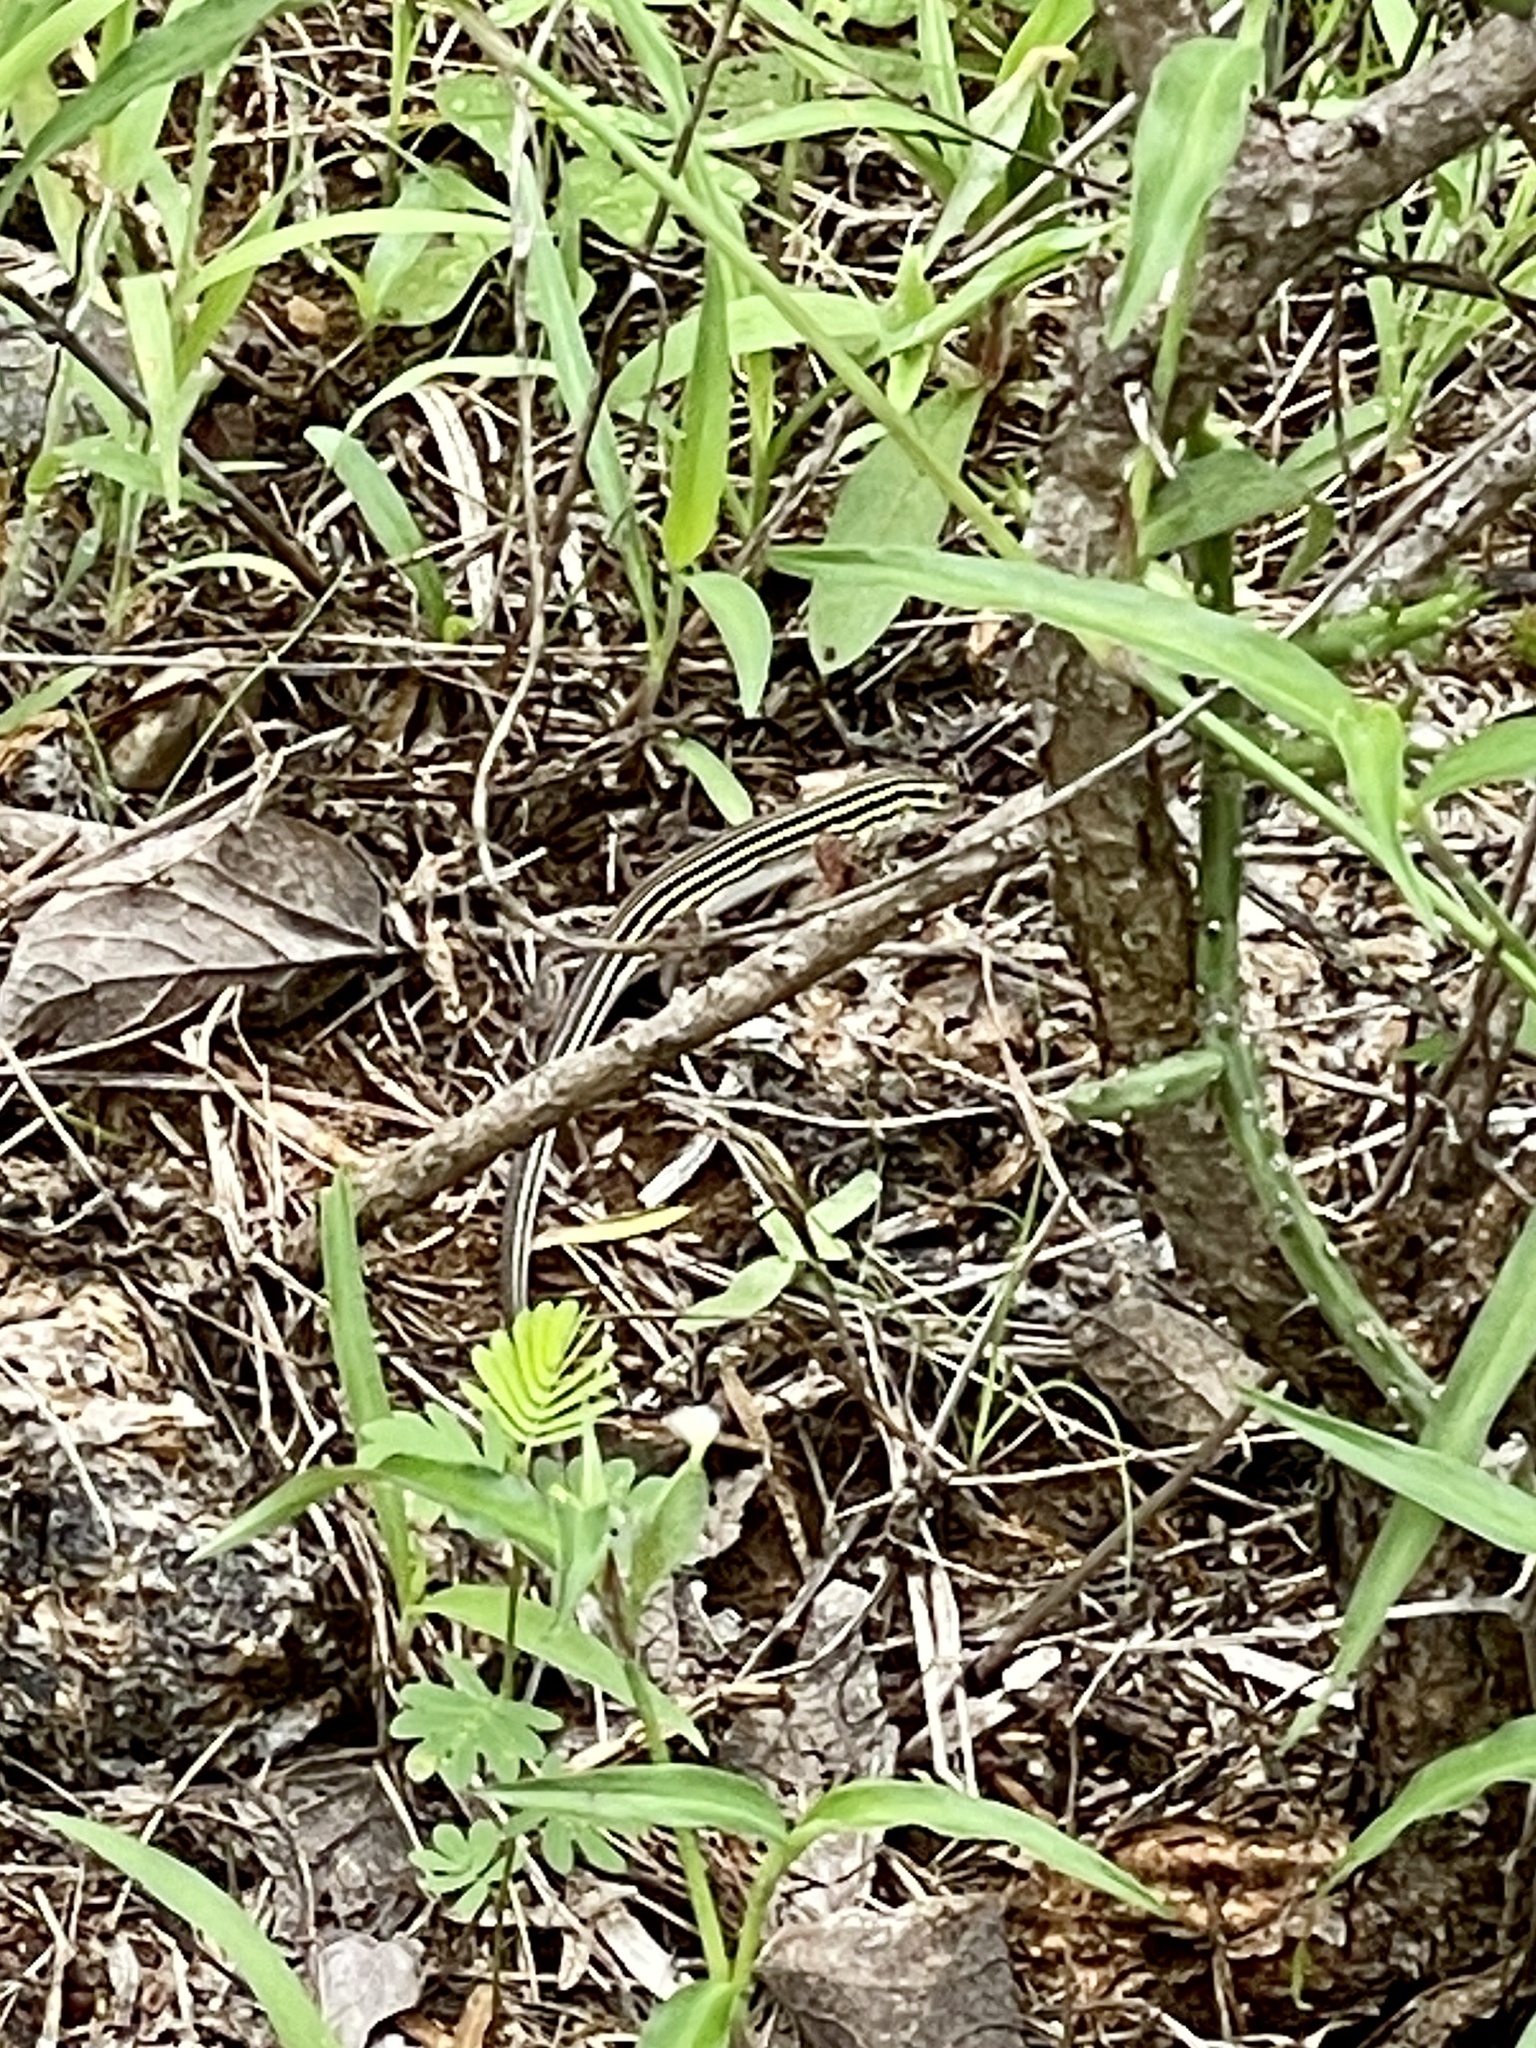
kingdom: Animalia
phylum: Chordata
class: Squamata
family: Teiidae
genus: Aspidoscelis
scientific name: Aspidoscelis sexlineatus
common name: Six-lined racerunner
